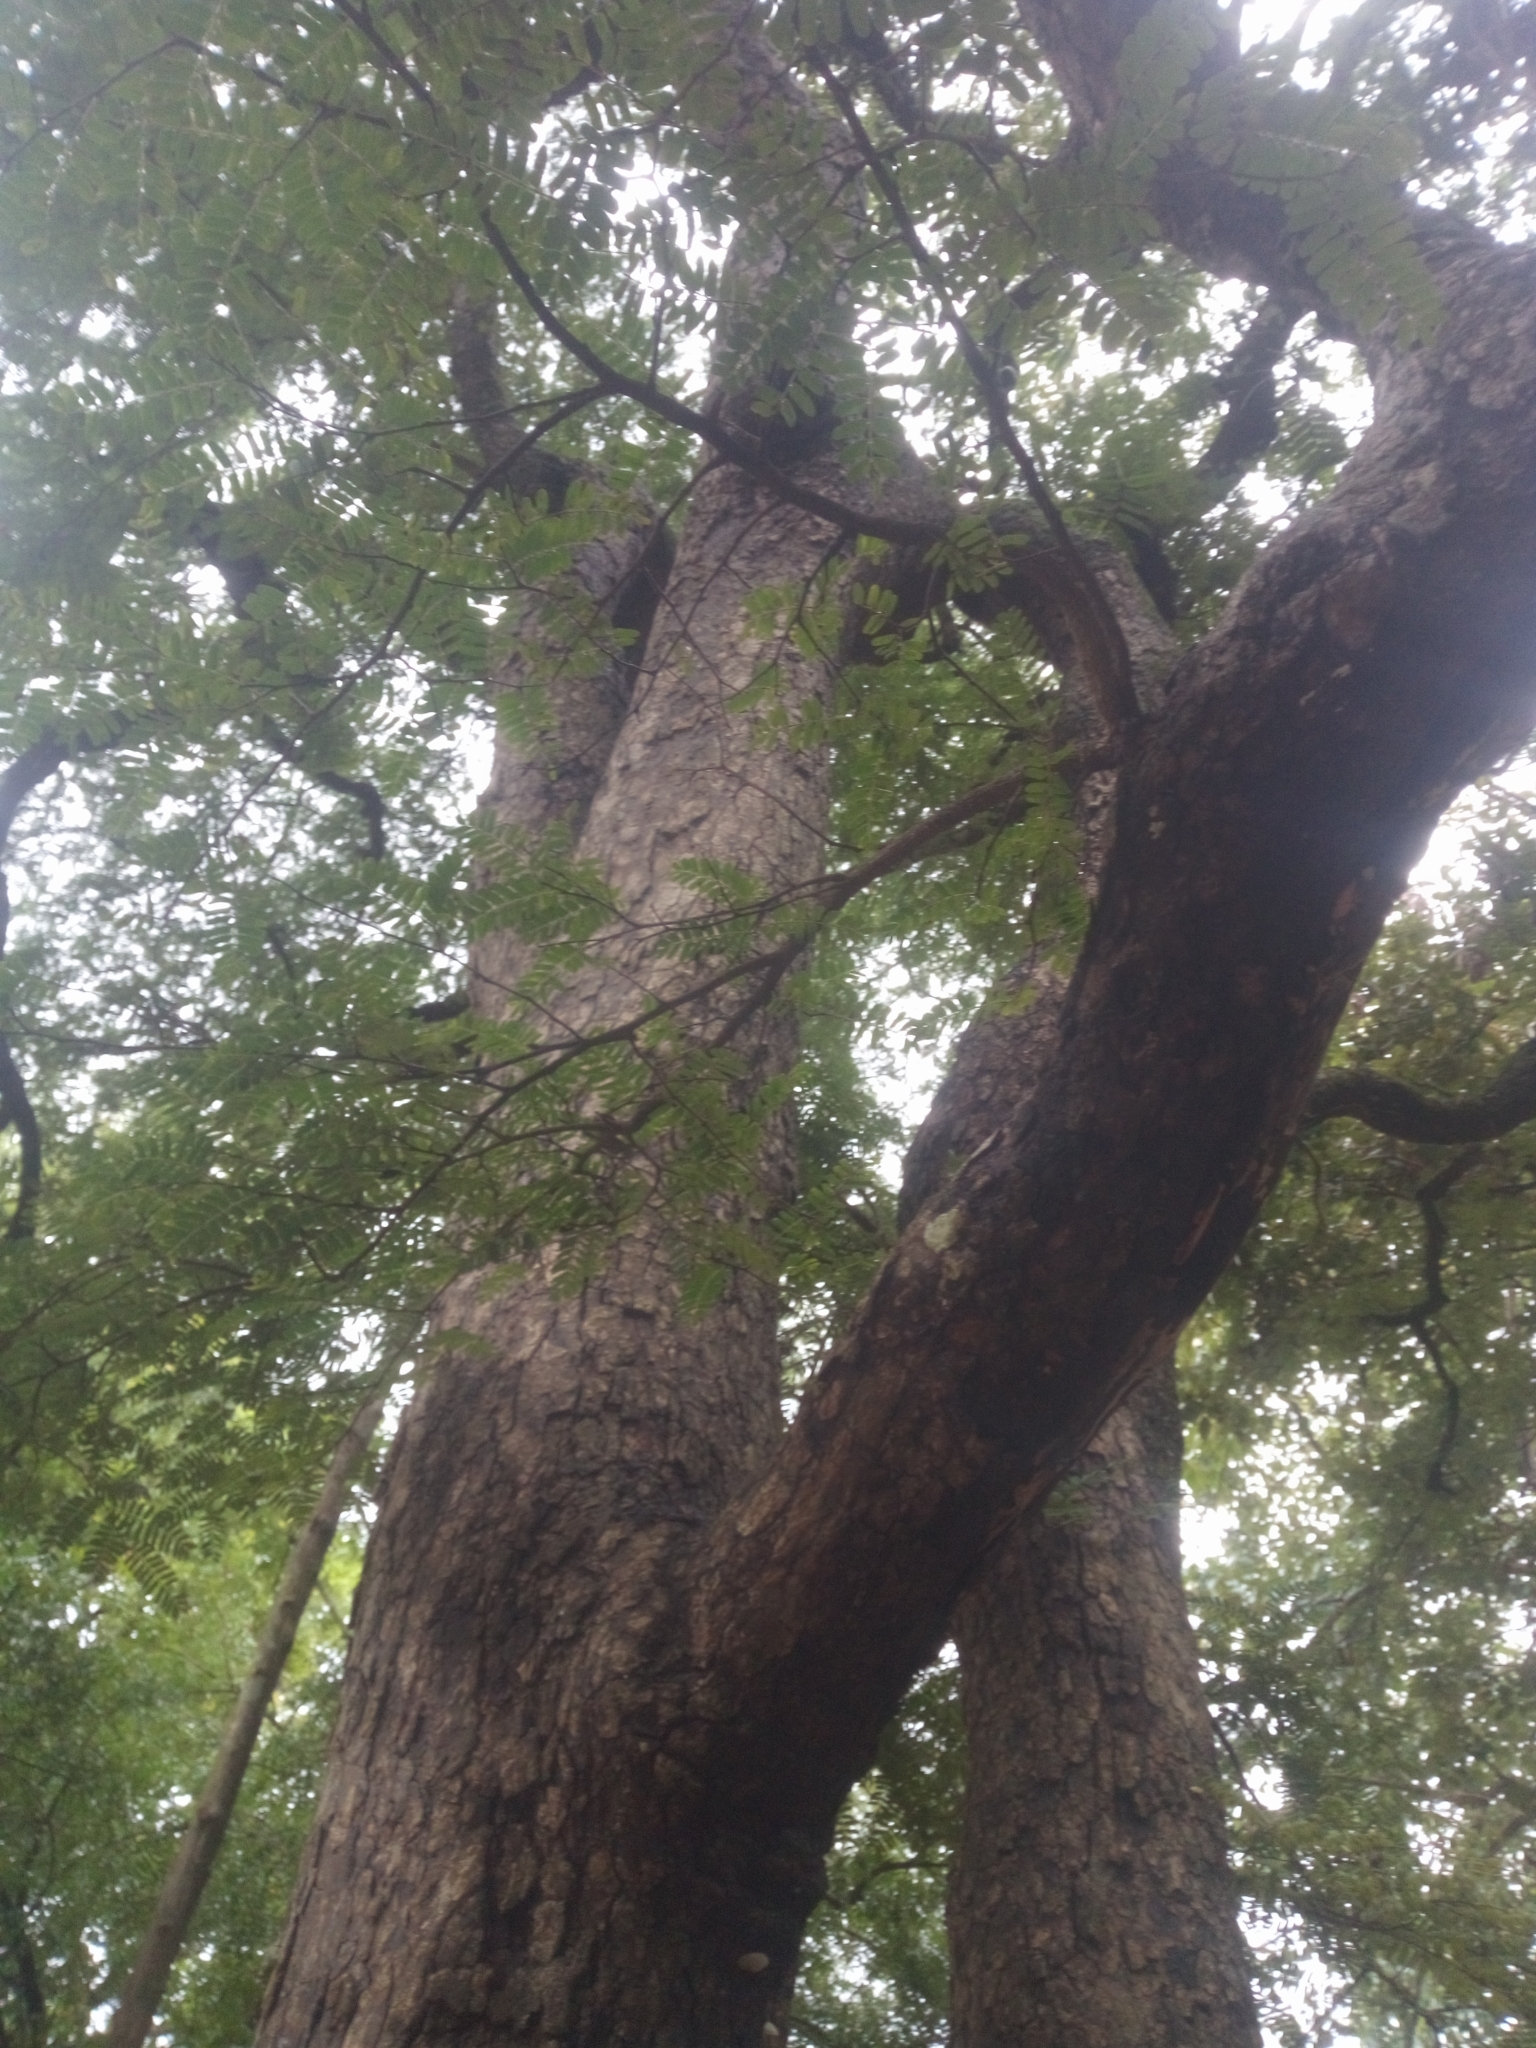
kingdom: Plantae
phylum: Tracheophyta
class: Magnoliopsida
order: Fabales
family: Fabaceae
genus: Tamarindus
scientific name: Tamarindus indica
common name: Tamarind
